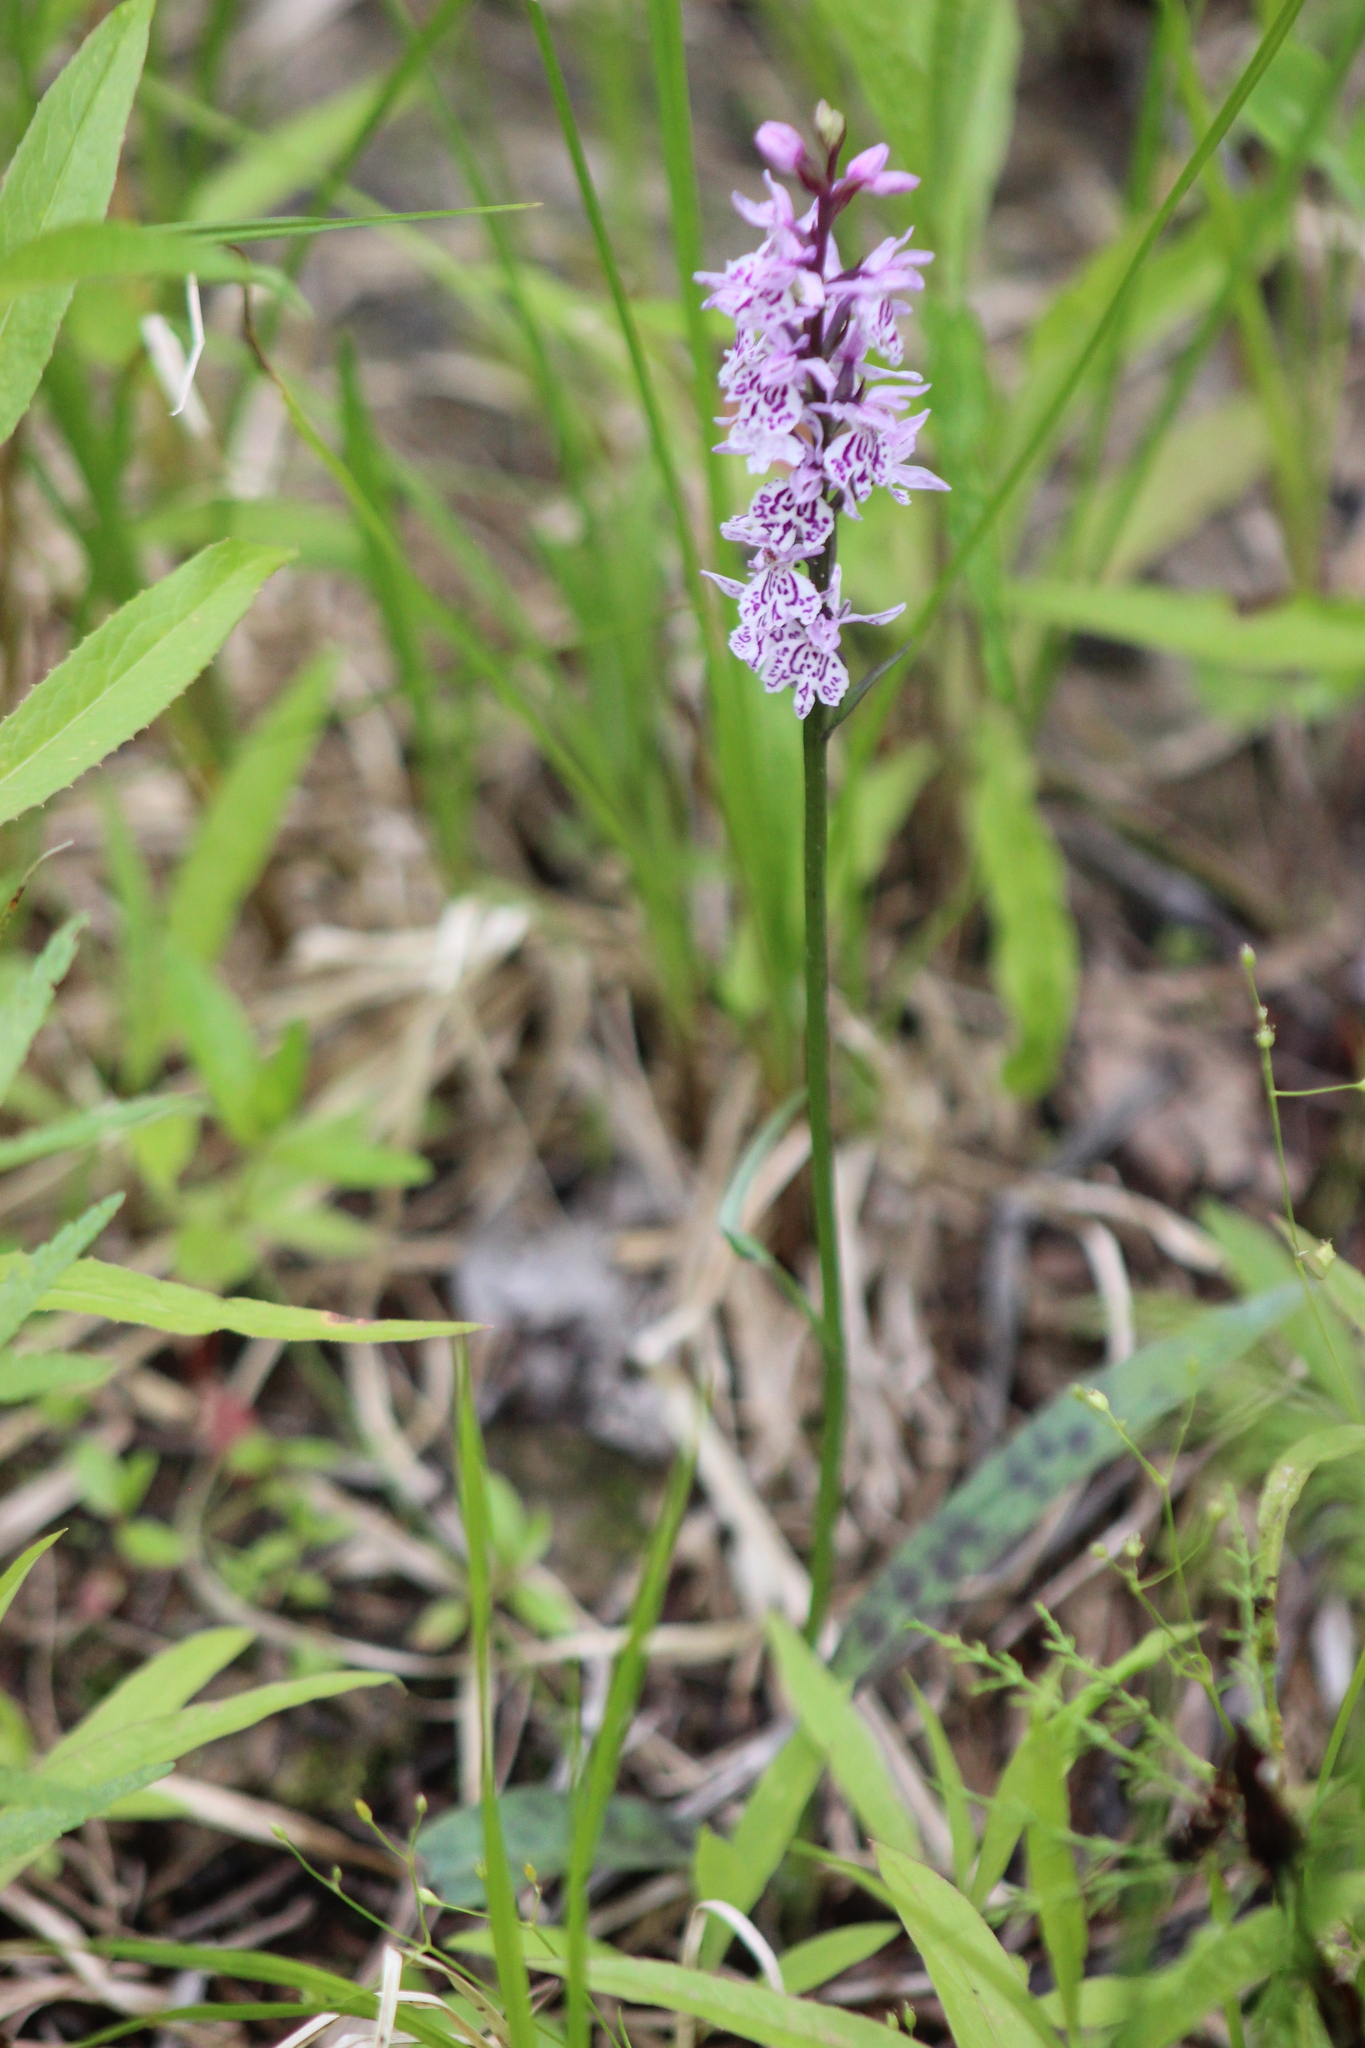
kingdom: Plantae
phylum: Tracheophyta
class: Liliopsida
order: Asparagales
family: Orchidaceae
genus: Dactylorhiza
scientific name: Dactylorhiza maculata
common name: Heath spotted-orchid
